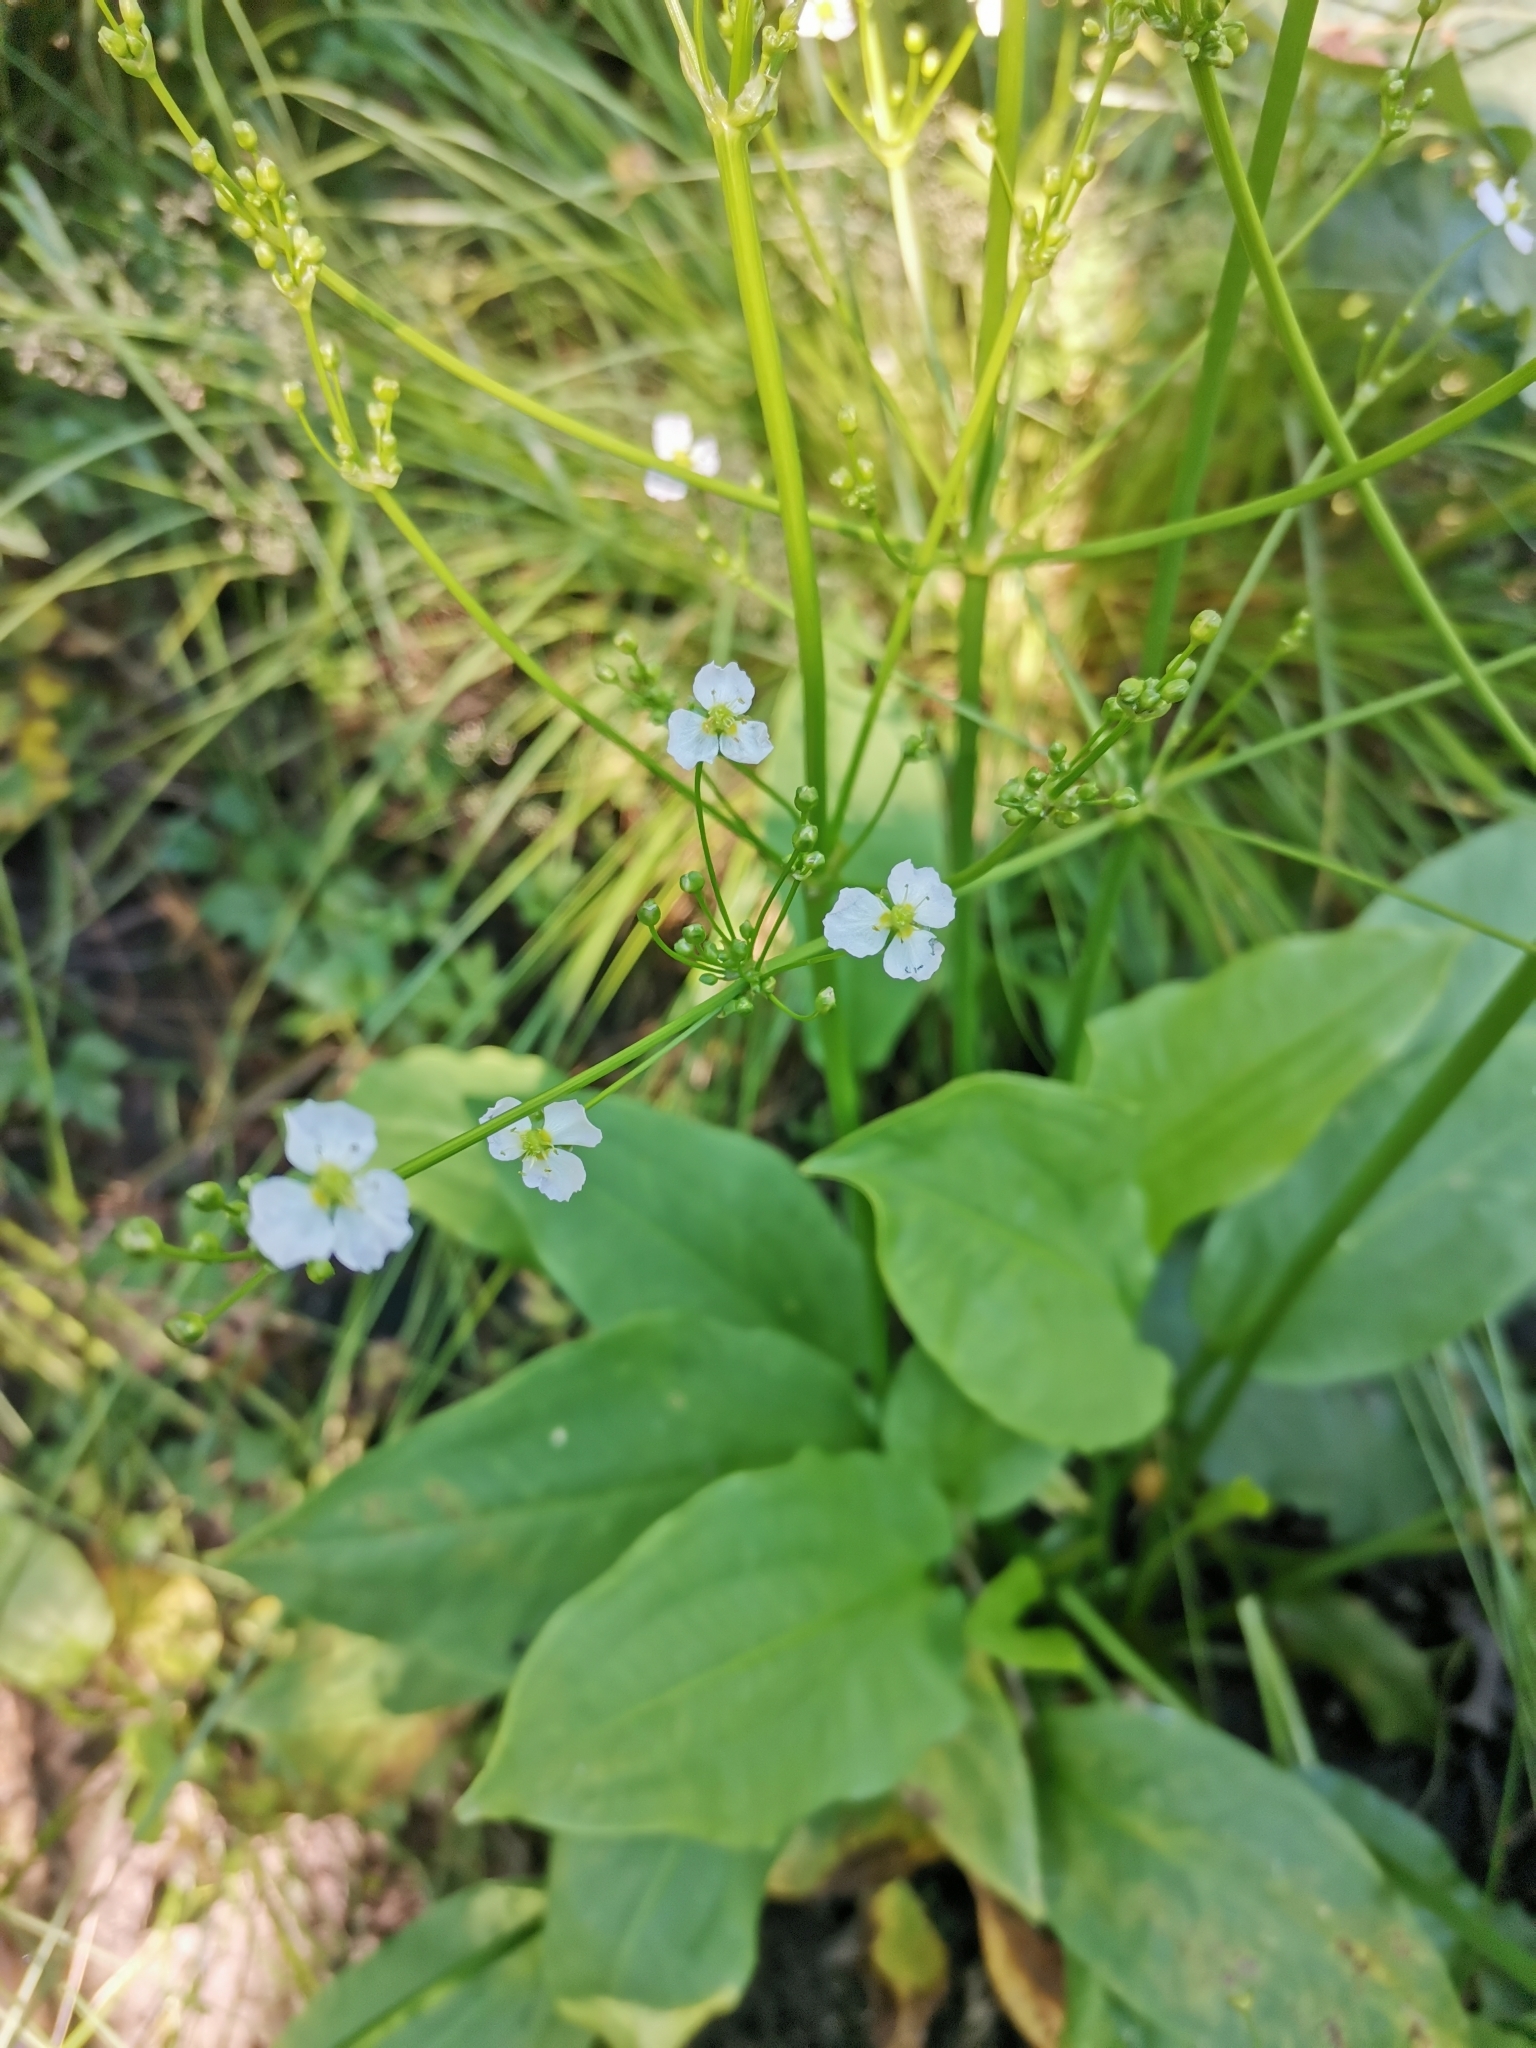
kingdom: Plantae
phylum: Tracheophyta
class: Liliopsida
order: Alismatales
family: Alismataceae
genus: Alisma
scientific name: Alisma plantago-aquatica
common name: Water-plantain
